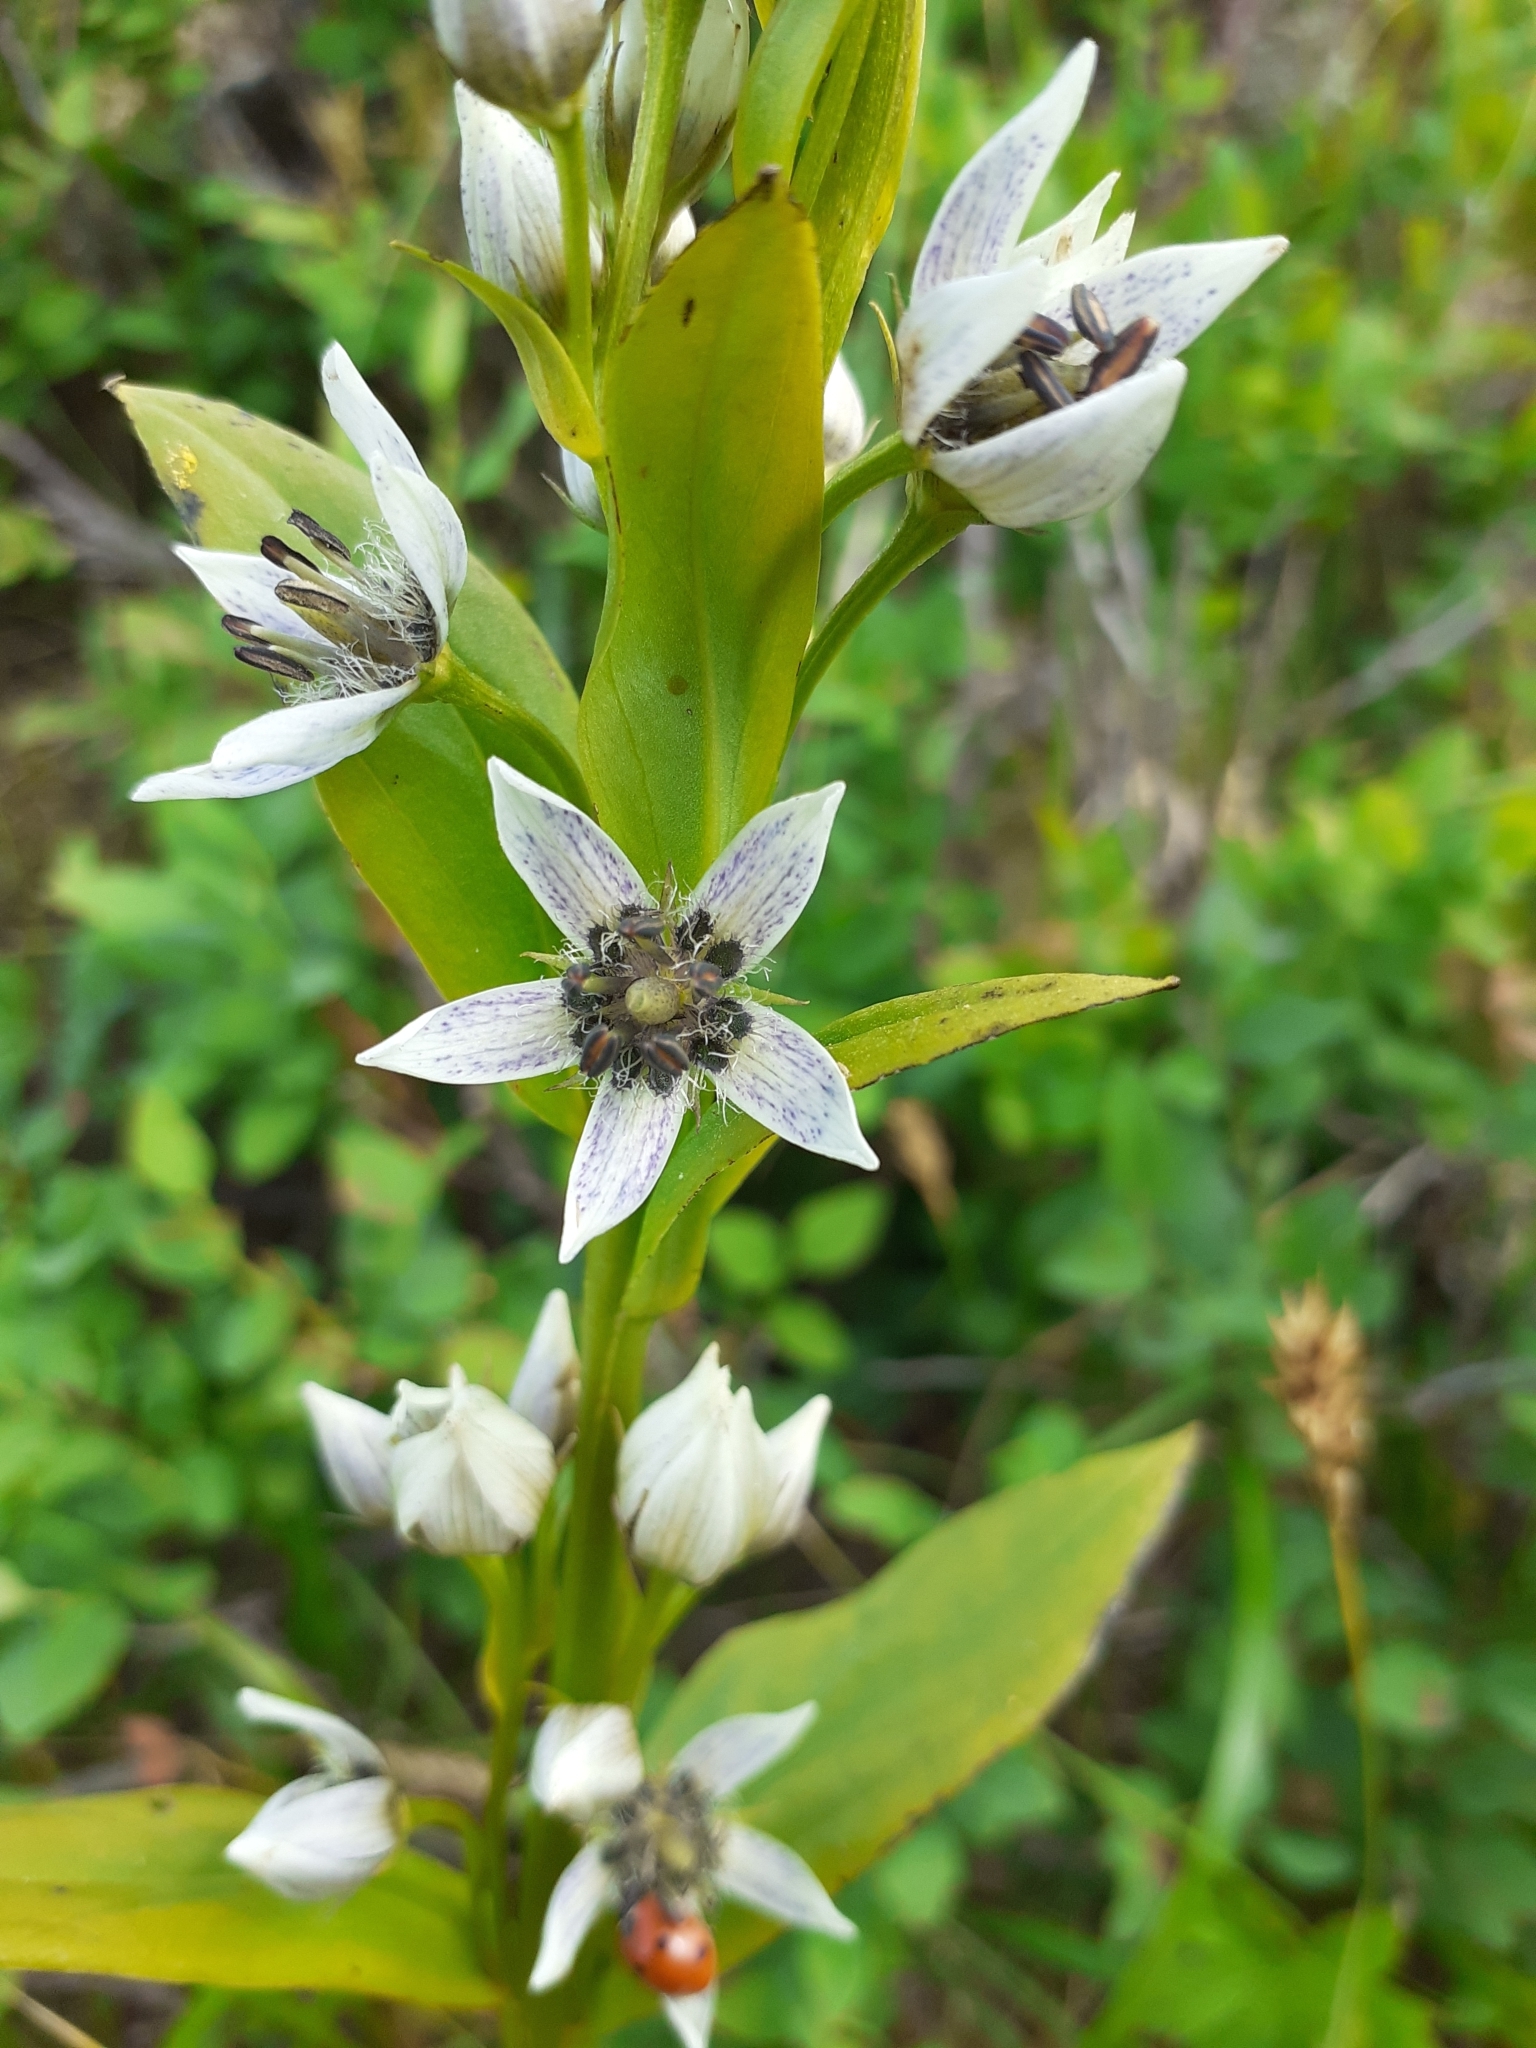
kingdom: Plantae
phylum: Tracheophyta
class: Magnoliopsida
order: Gentianales
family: Gentianaceae
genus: Swertia
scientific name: Swertia iberica
